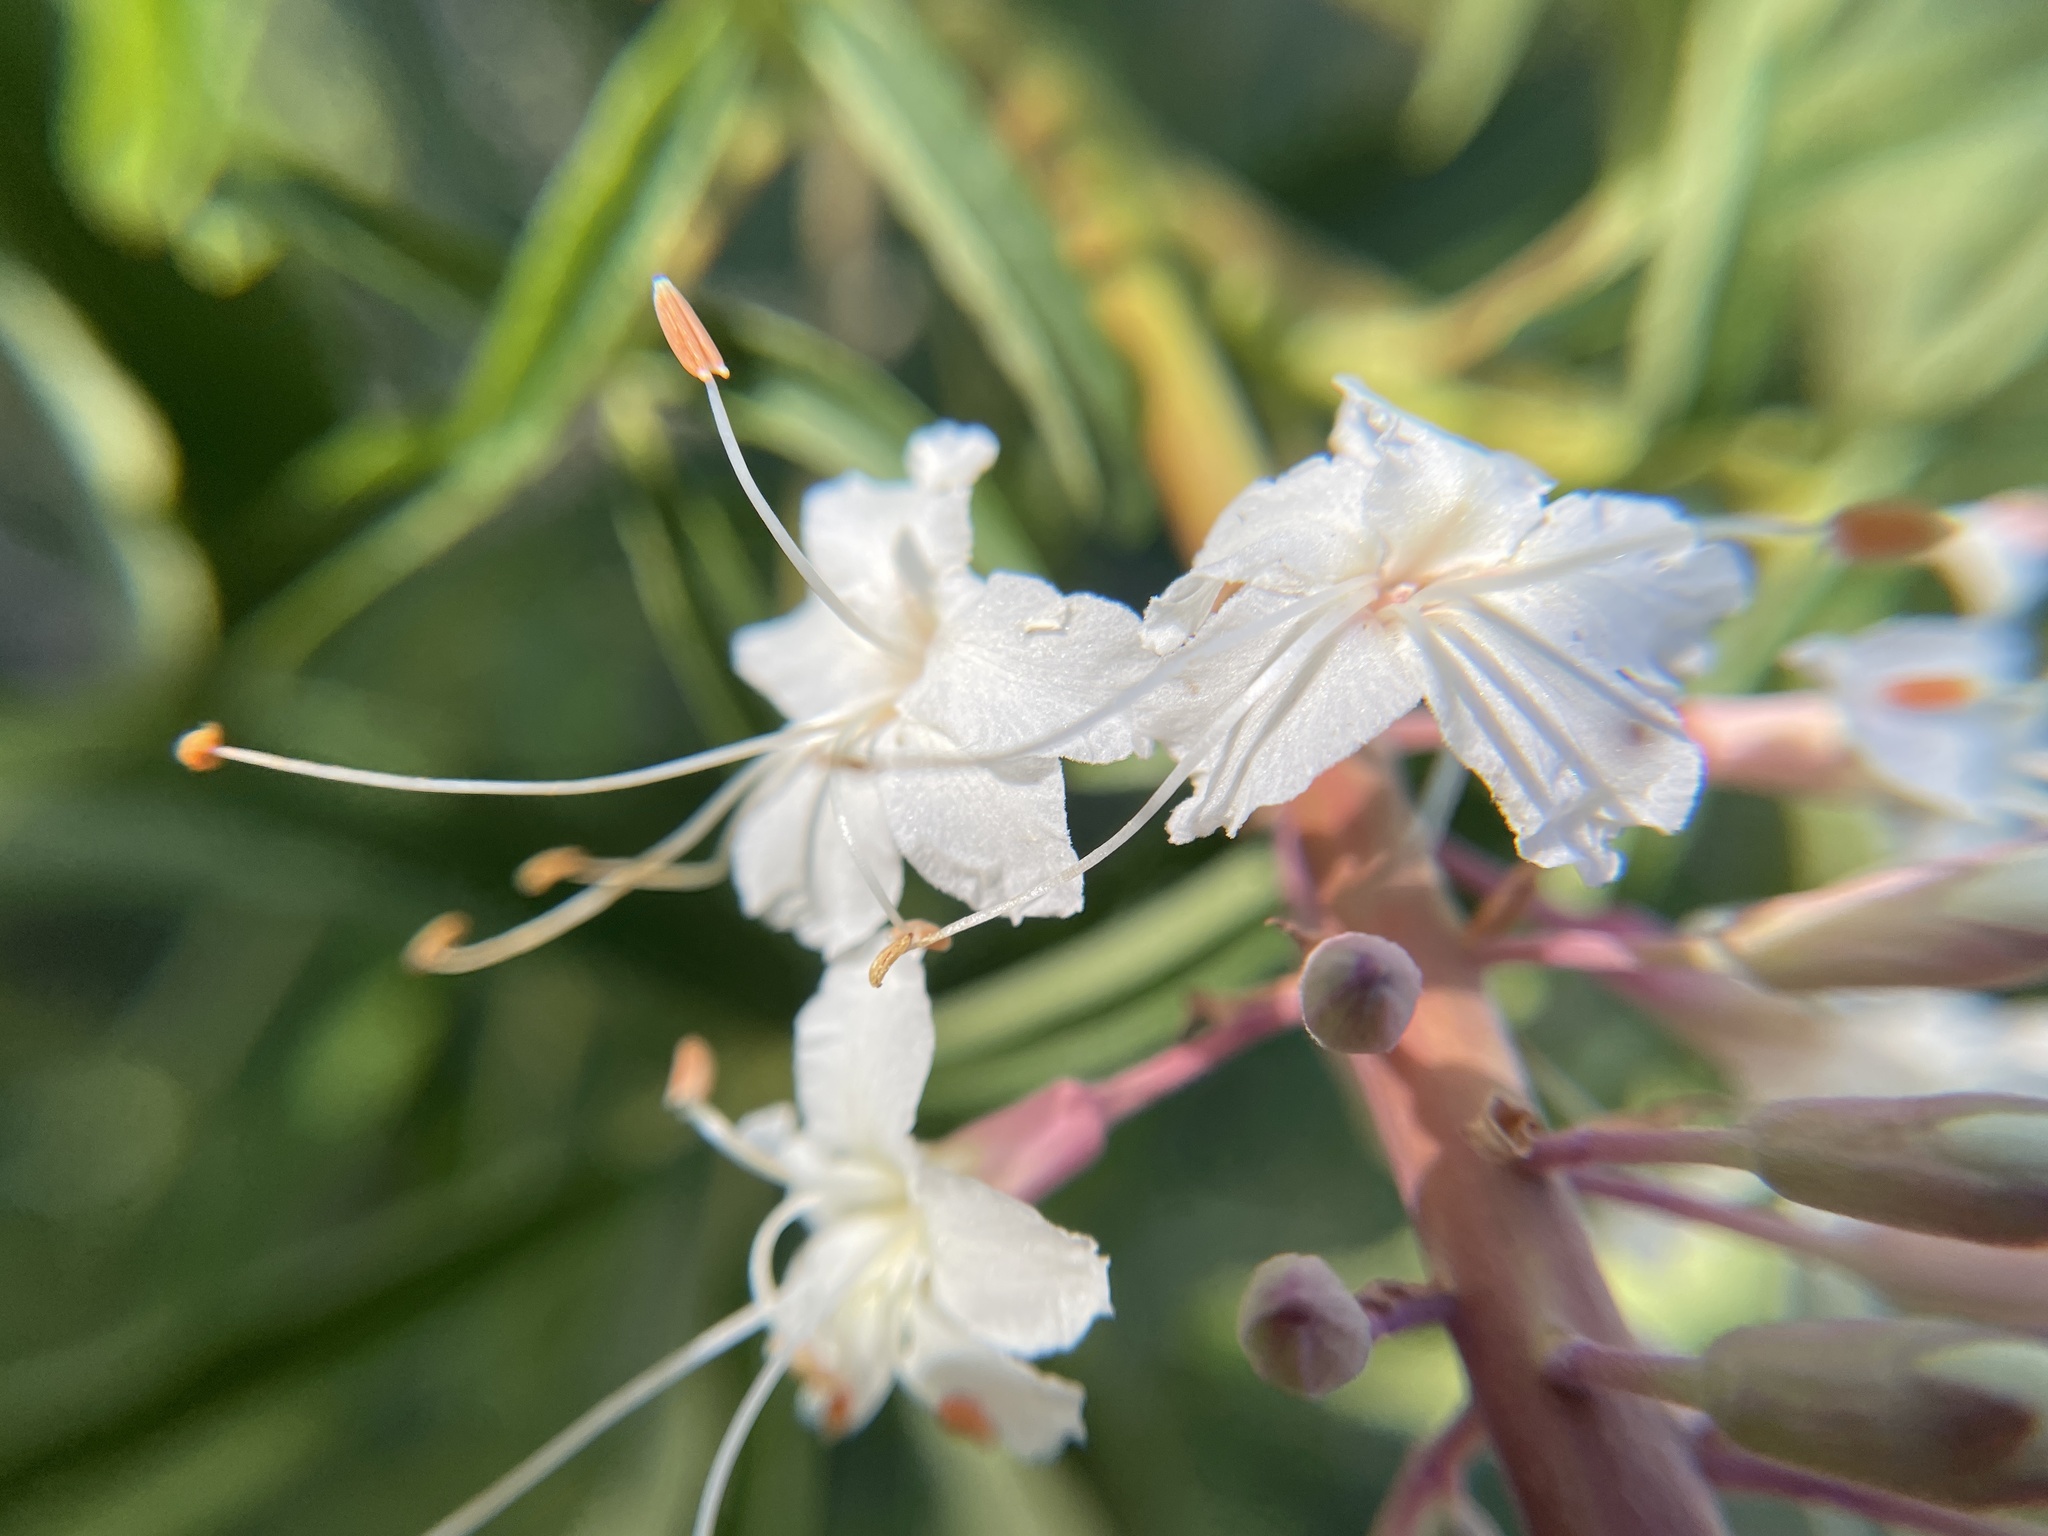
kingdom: Plantae
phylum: Tracheophyta
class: Magnoliopsida
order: Sapindales
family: Sapindaceae
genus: Aesculus
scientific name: Aesculus californica
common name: California buckeye
